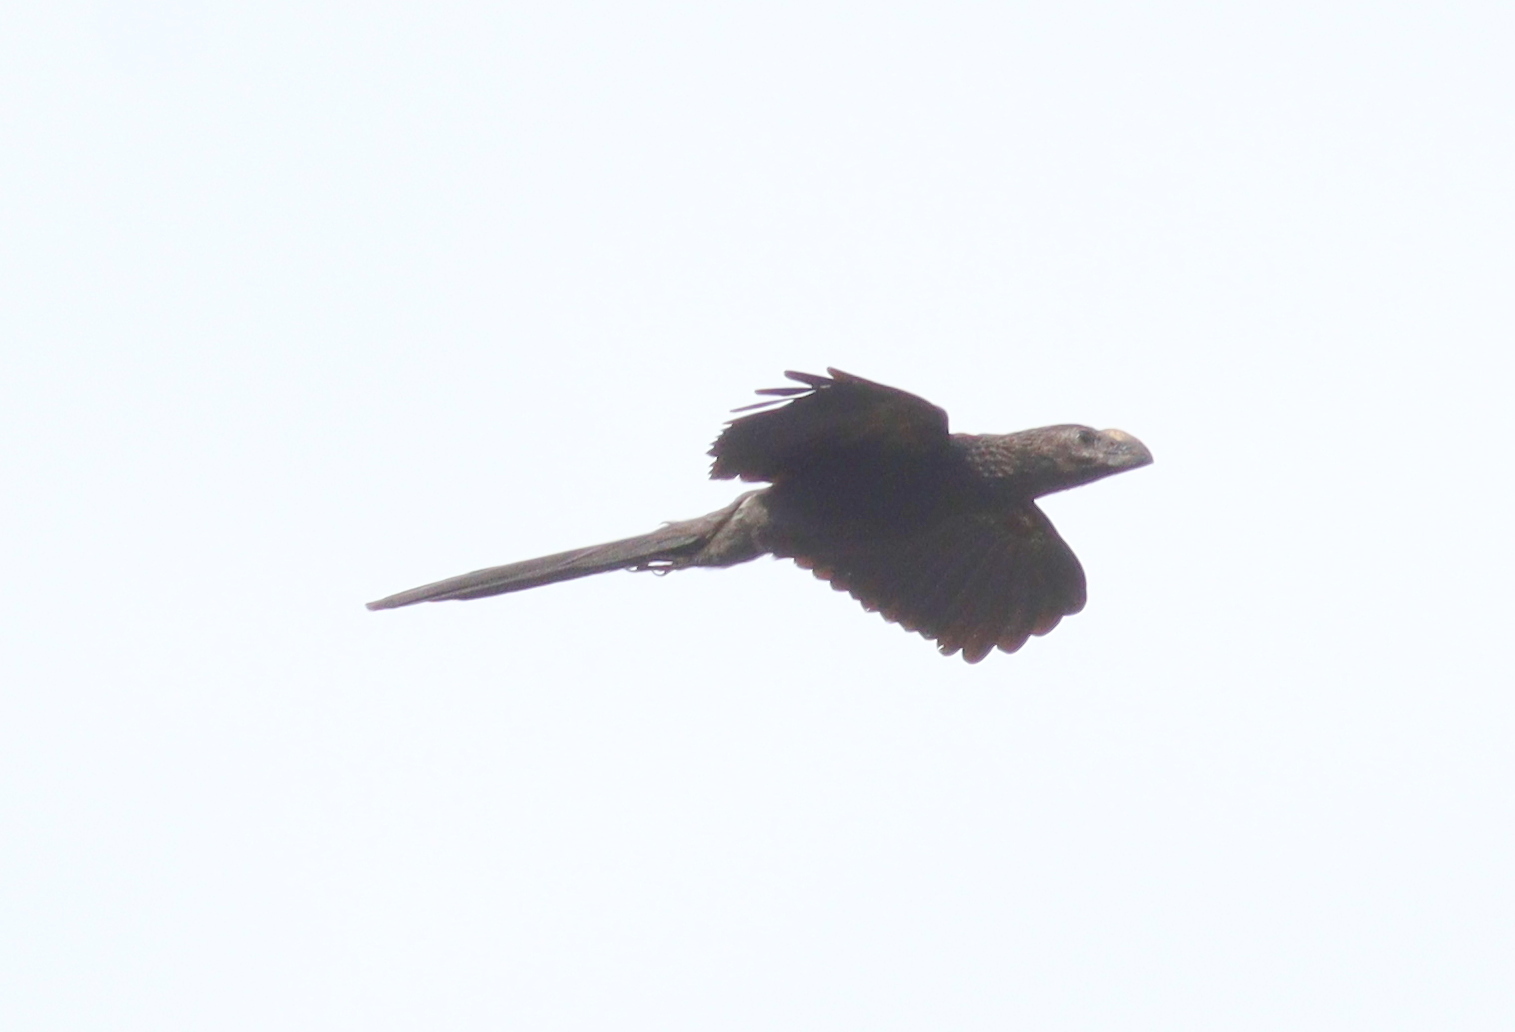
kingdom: Animalia
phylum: Chordata
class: Aves
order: Cuculiformes
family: Cuculidae
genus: Crotophaga
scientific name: Crotophaga ani
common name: Smooth-billed ani
